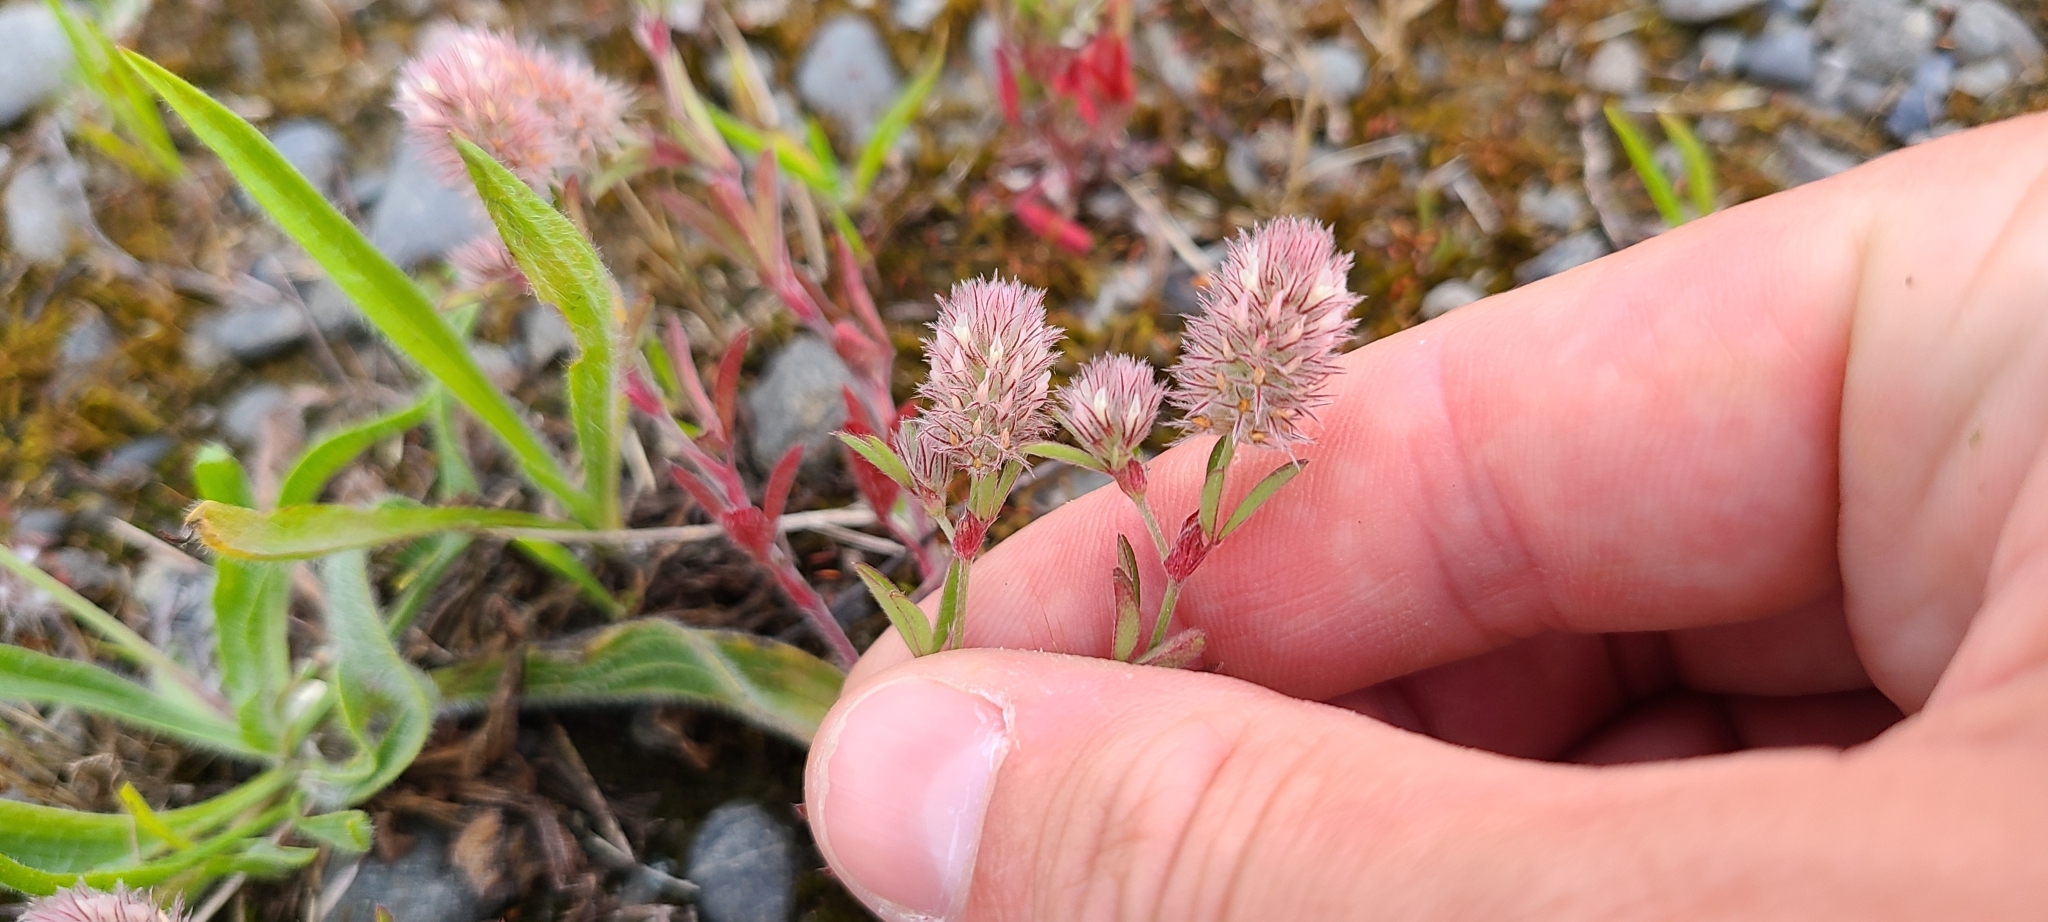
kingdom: Plantae
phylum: Tracheophyta
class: Magnoliopsida
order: Fabales
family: Fabaceae
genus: Trifolium
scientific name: Trifolium arvense
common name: Hare's-foot clover
